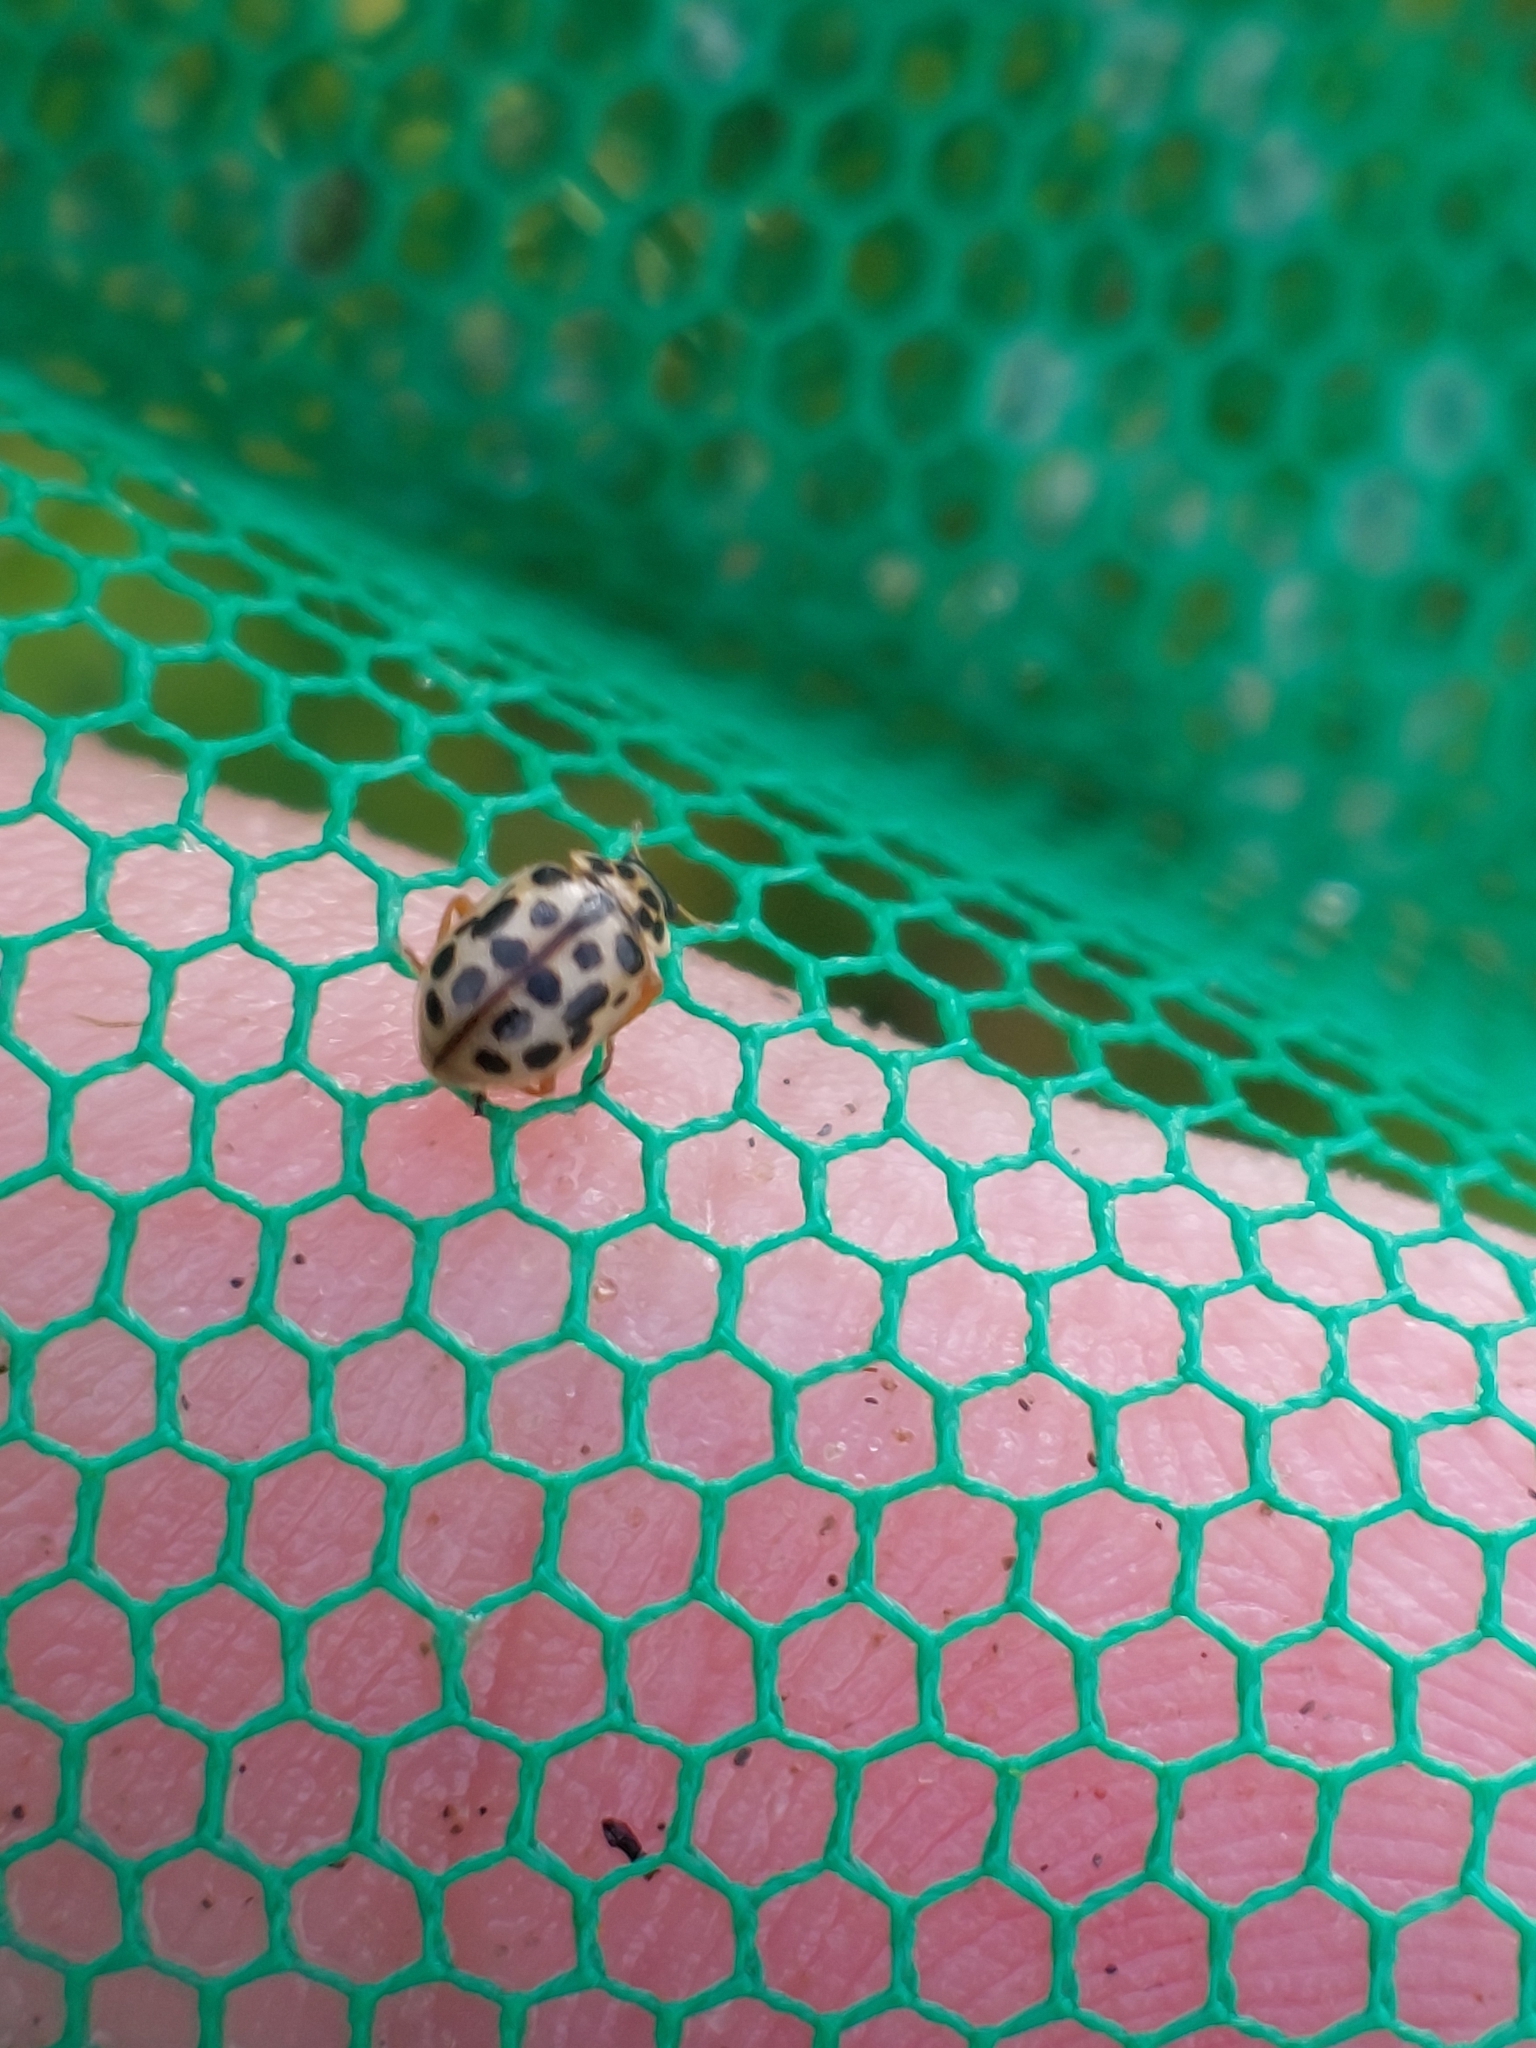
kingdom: Animalia
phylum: Arthropoda
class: Insecta
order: Coleoptera
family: Coccinellidae
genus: Anisosticta
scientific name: Anisosticta novemdecimpunctata
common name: Water ladybird
